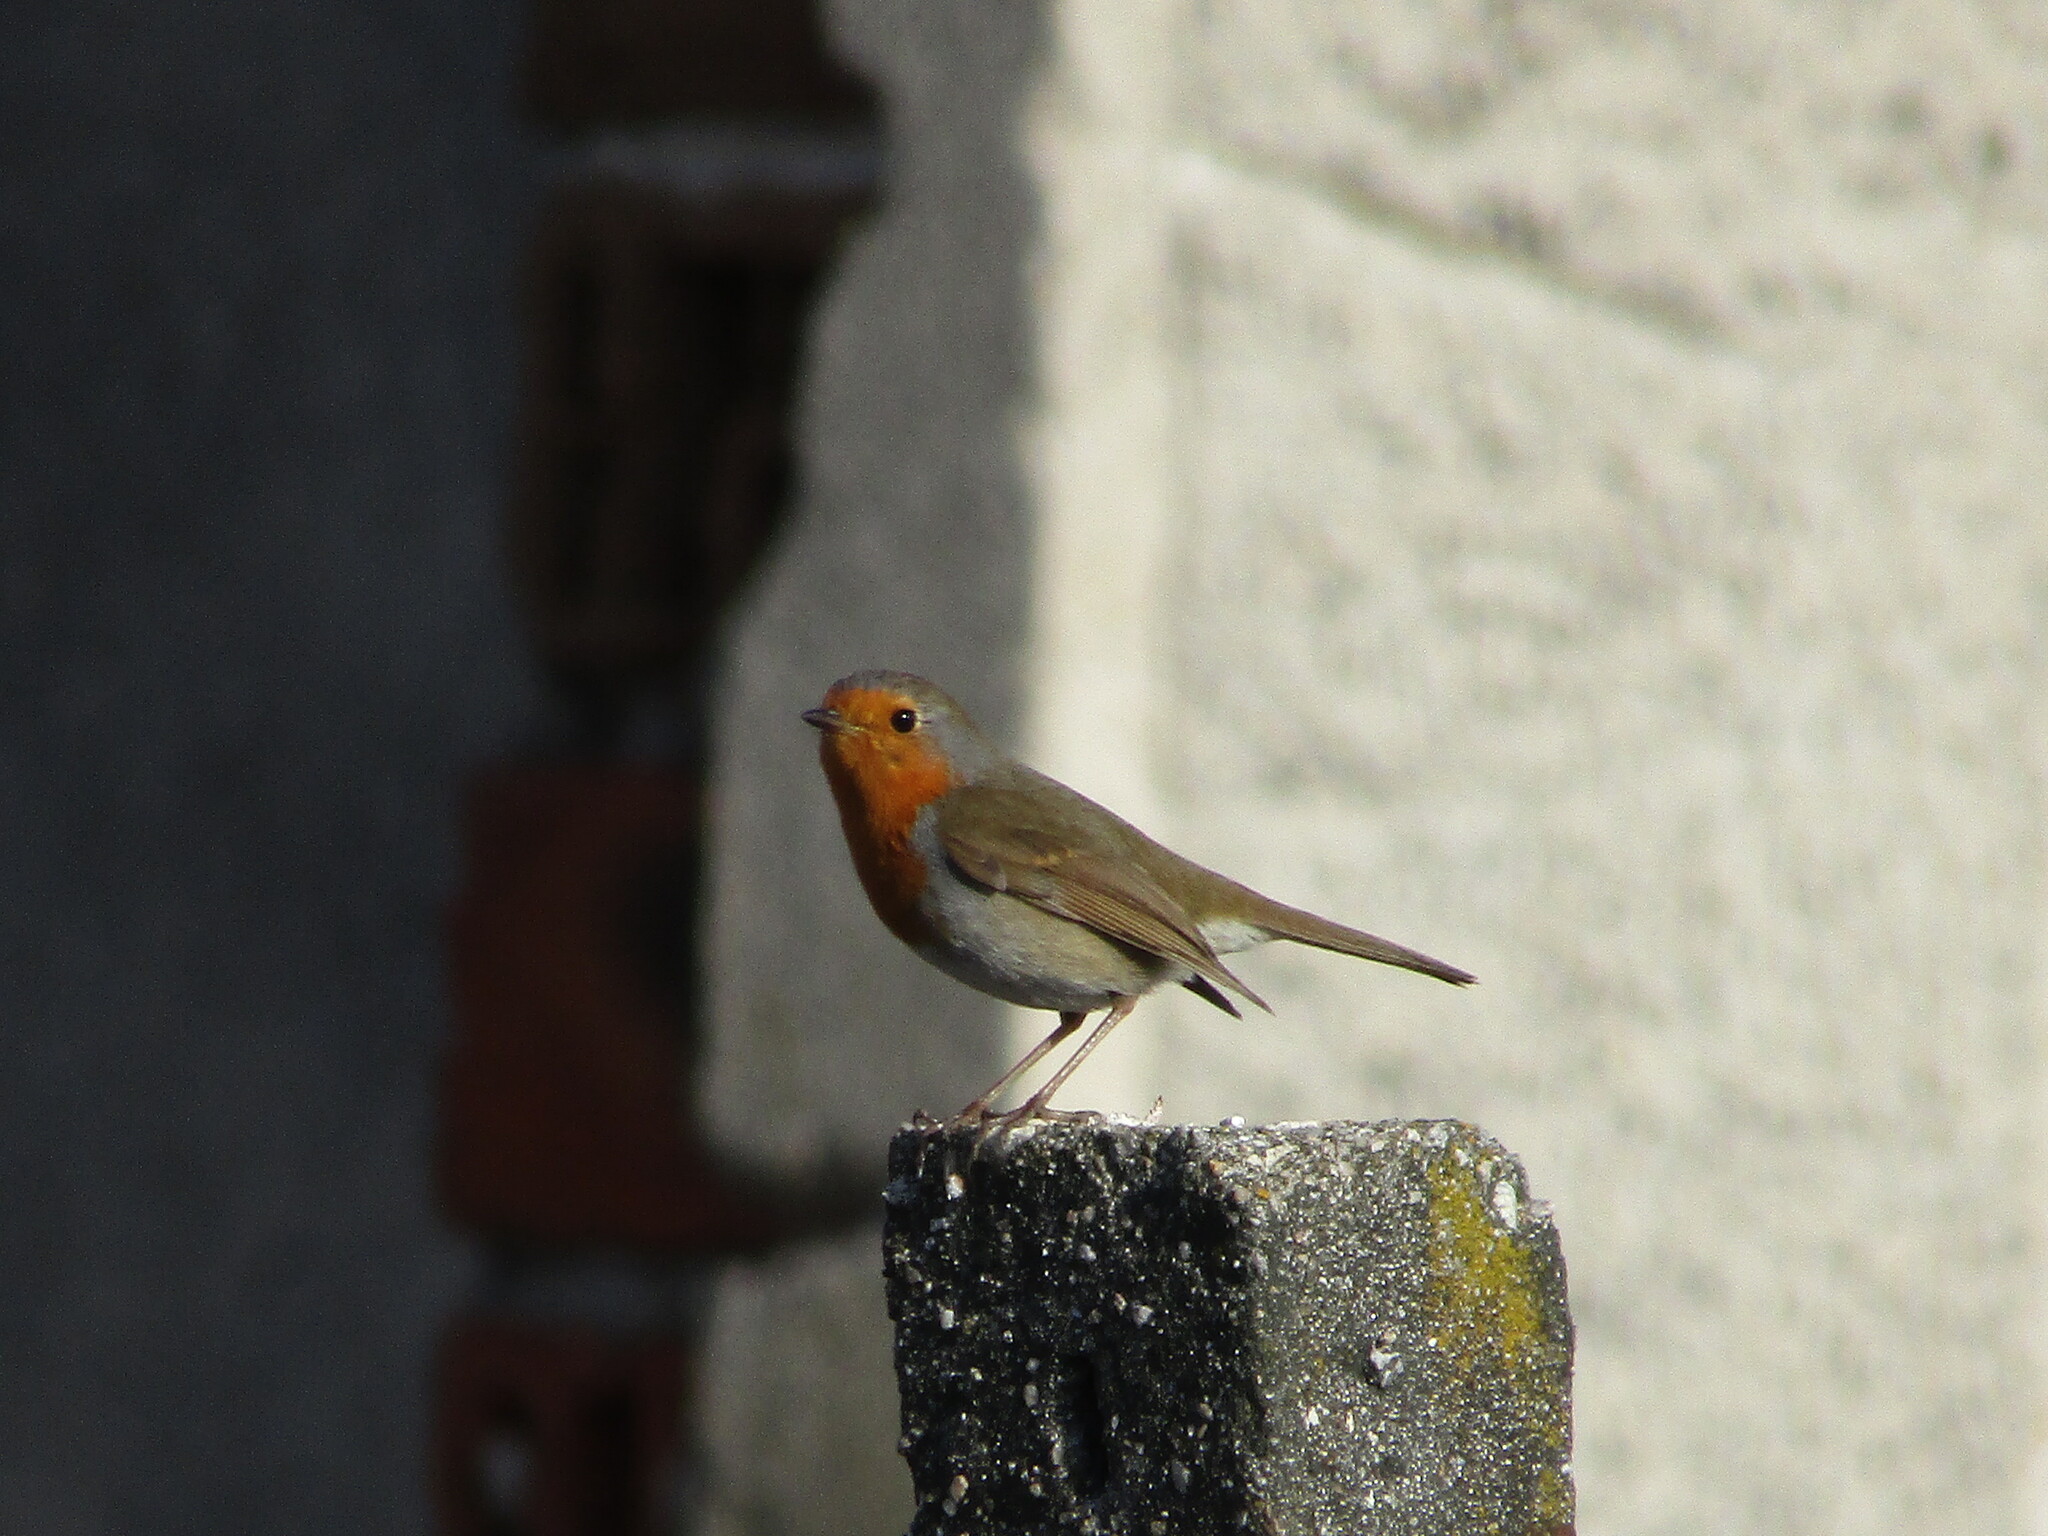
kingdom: Animalia
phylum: Chordata
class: Aves
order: Passeriformes
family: Muscicapidae
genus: Erithacus
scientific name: Erithacus rubecula
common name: European robin
